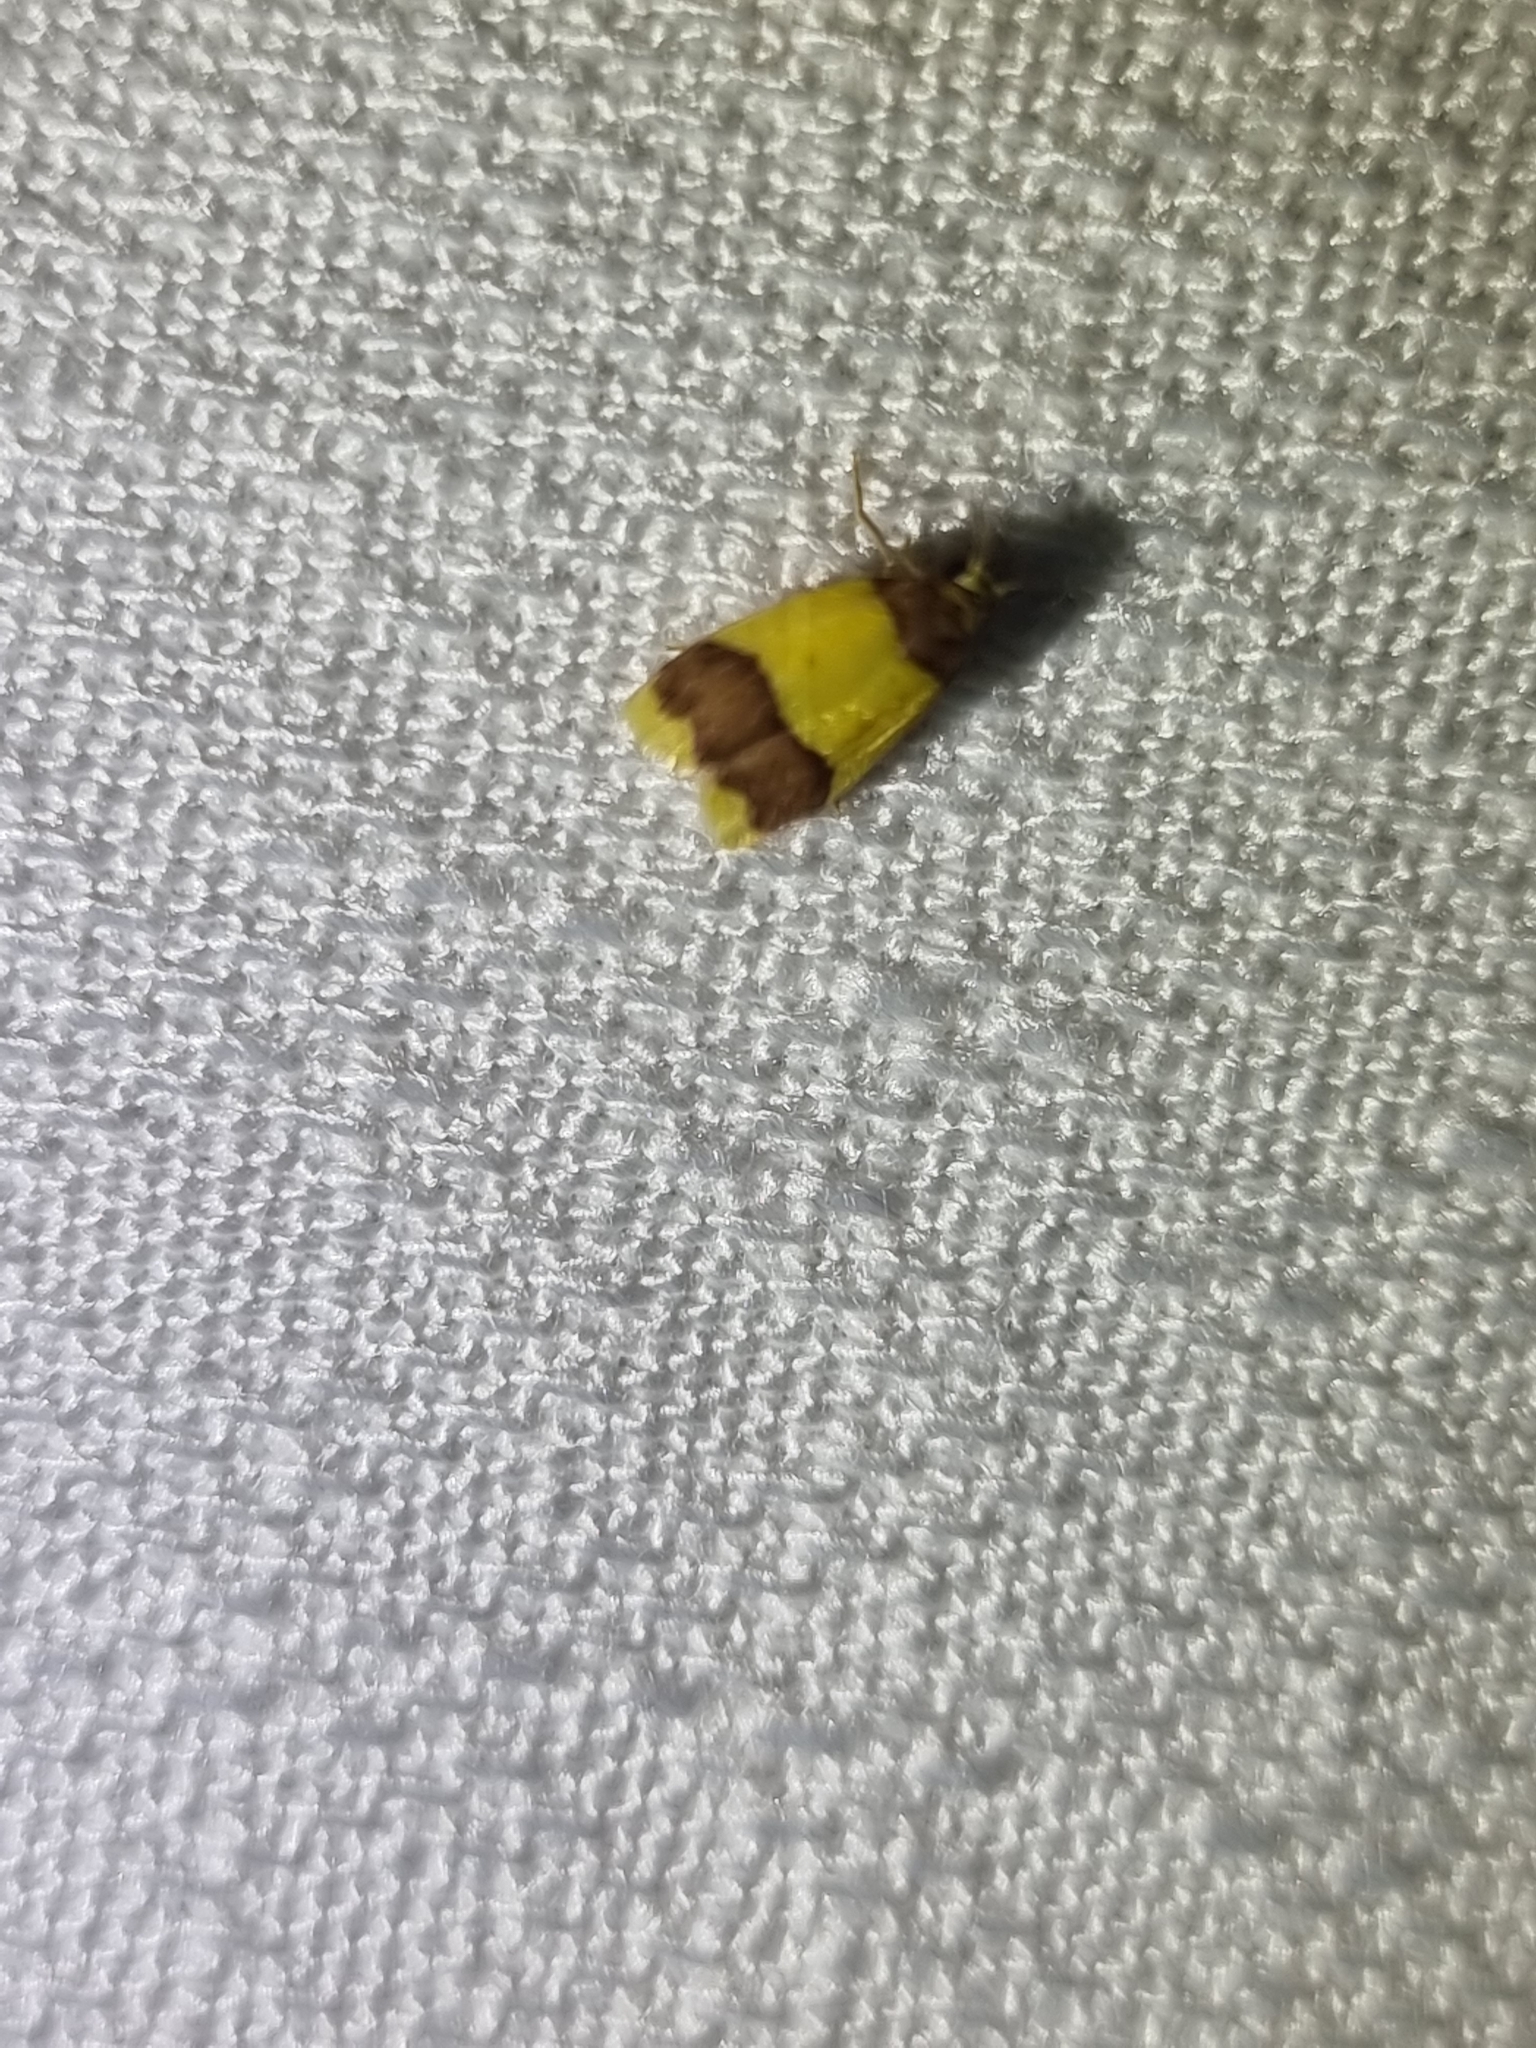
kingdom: Animalia
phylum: Arthropoda
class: Insecta
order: Lepidoptera
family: Erebidae
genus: Heterallactis
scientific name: Heterallactis microchrysa
